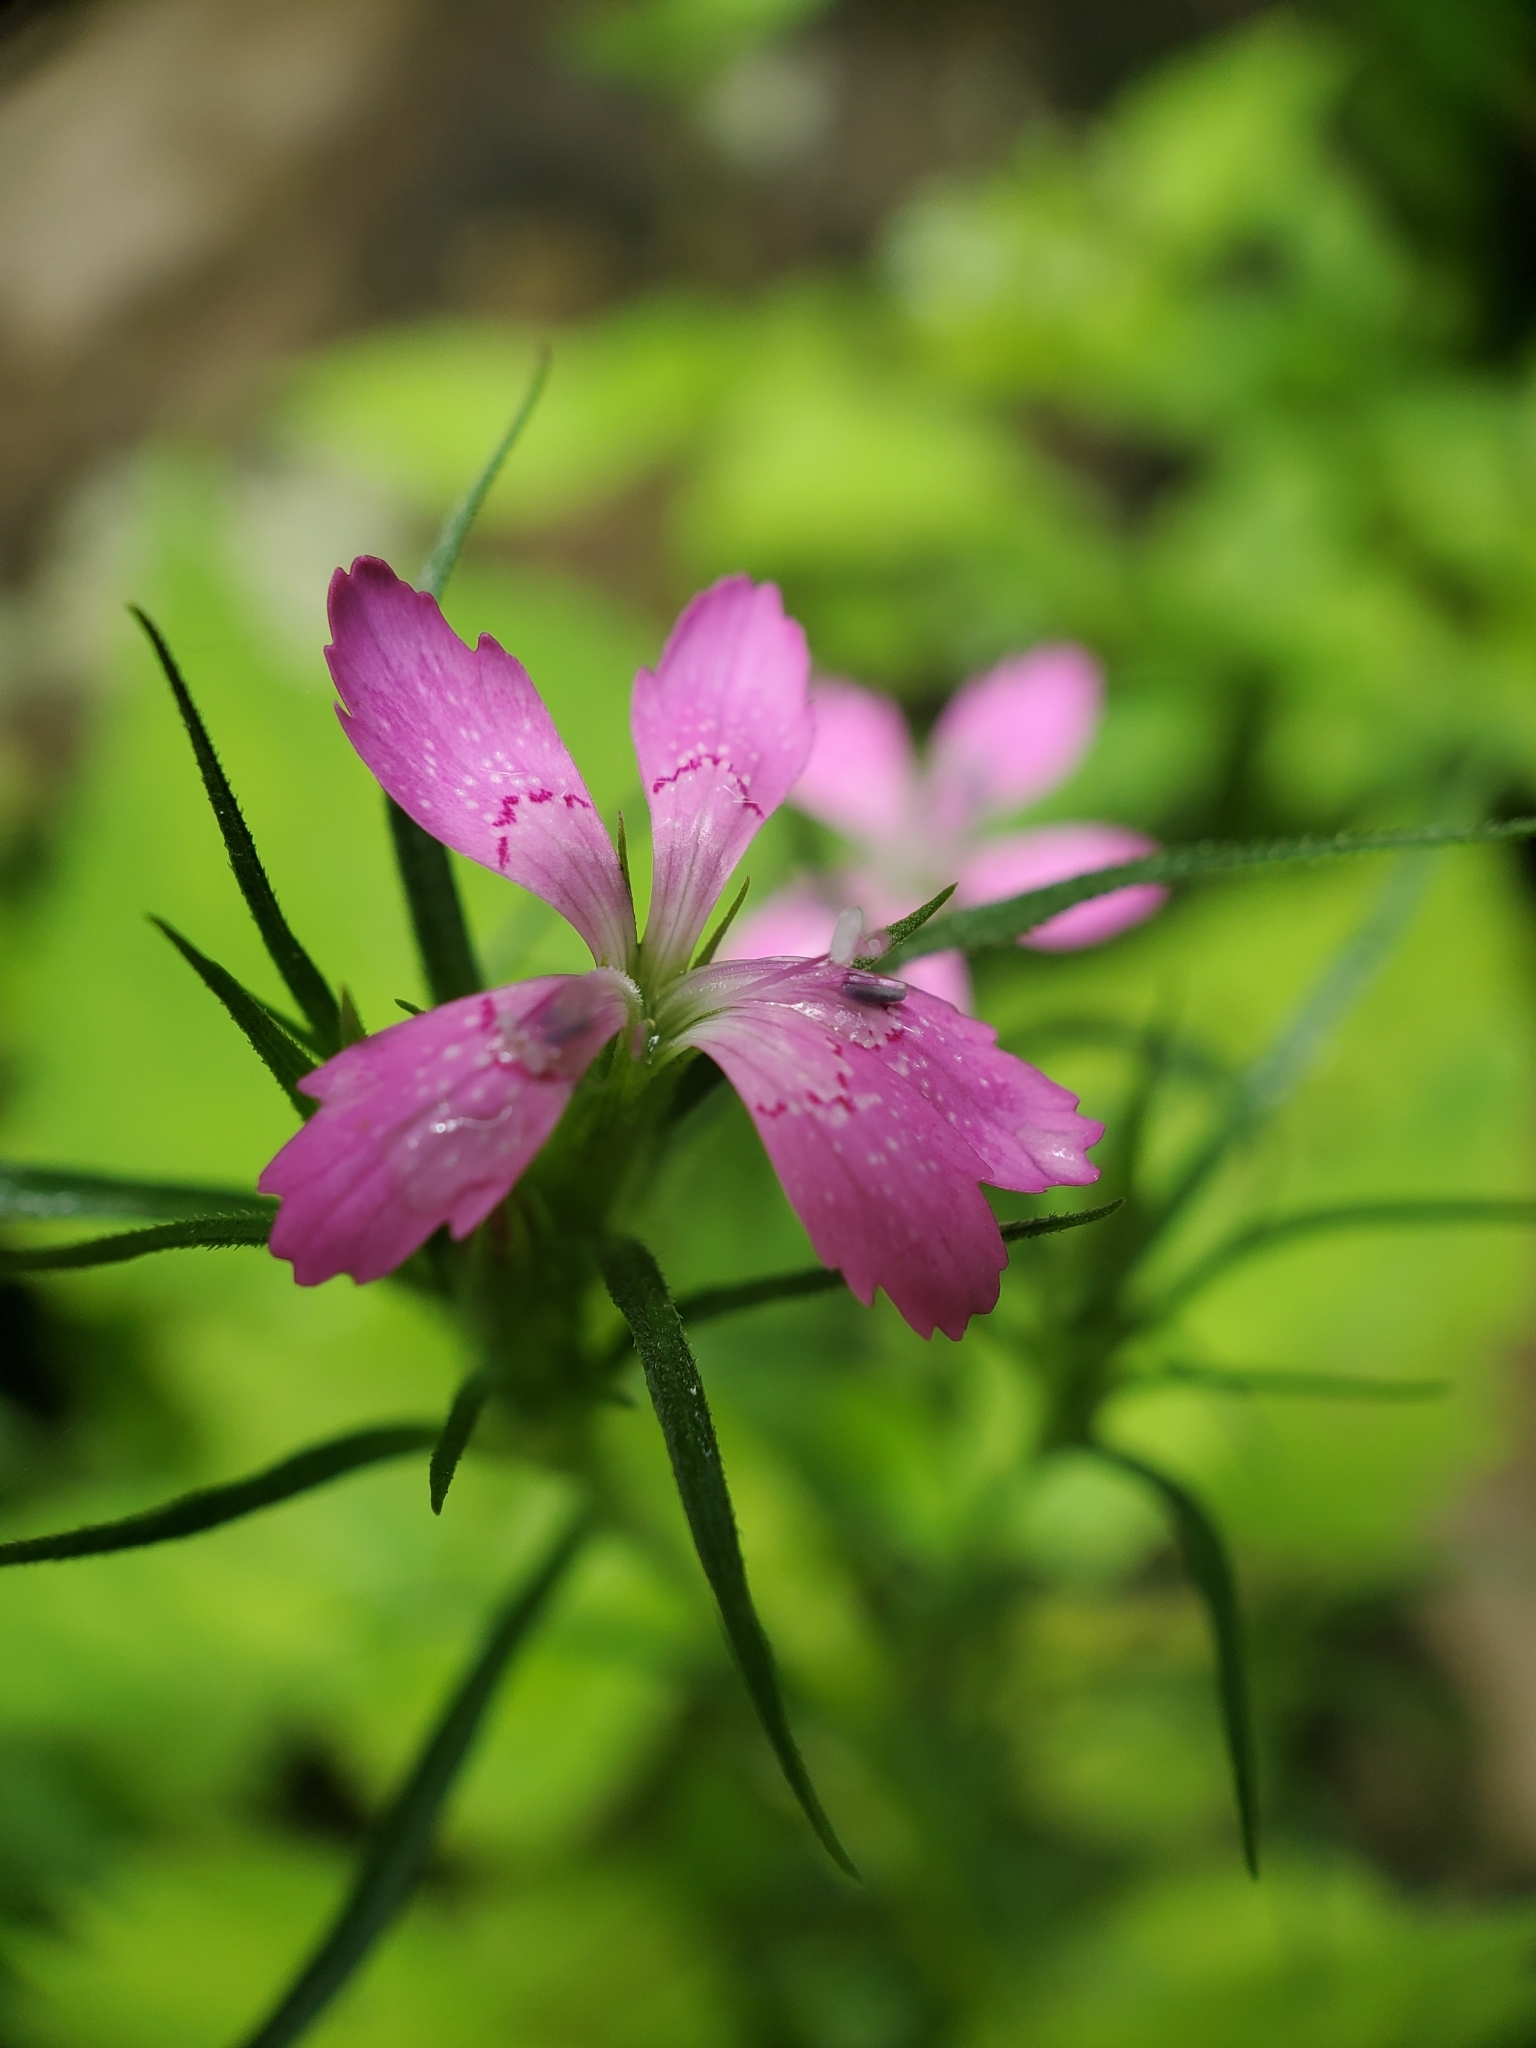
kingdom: Plantae
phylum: Tracheophyta
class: Magnoliopsida
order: Caryophyllales
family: Caryophyllaceae
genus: Dianthus
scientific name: Dianthus armeria
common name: Deptford pink
